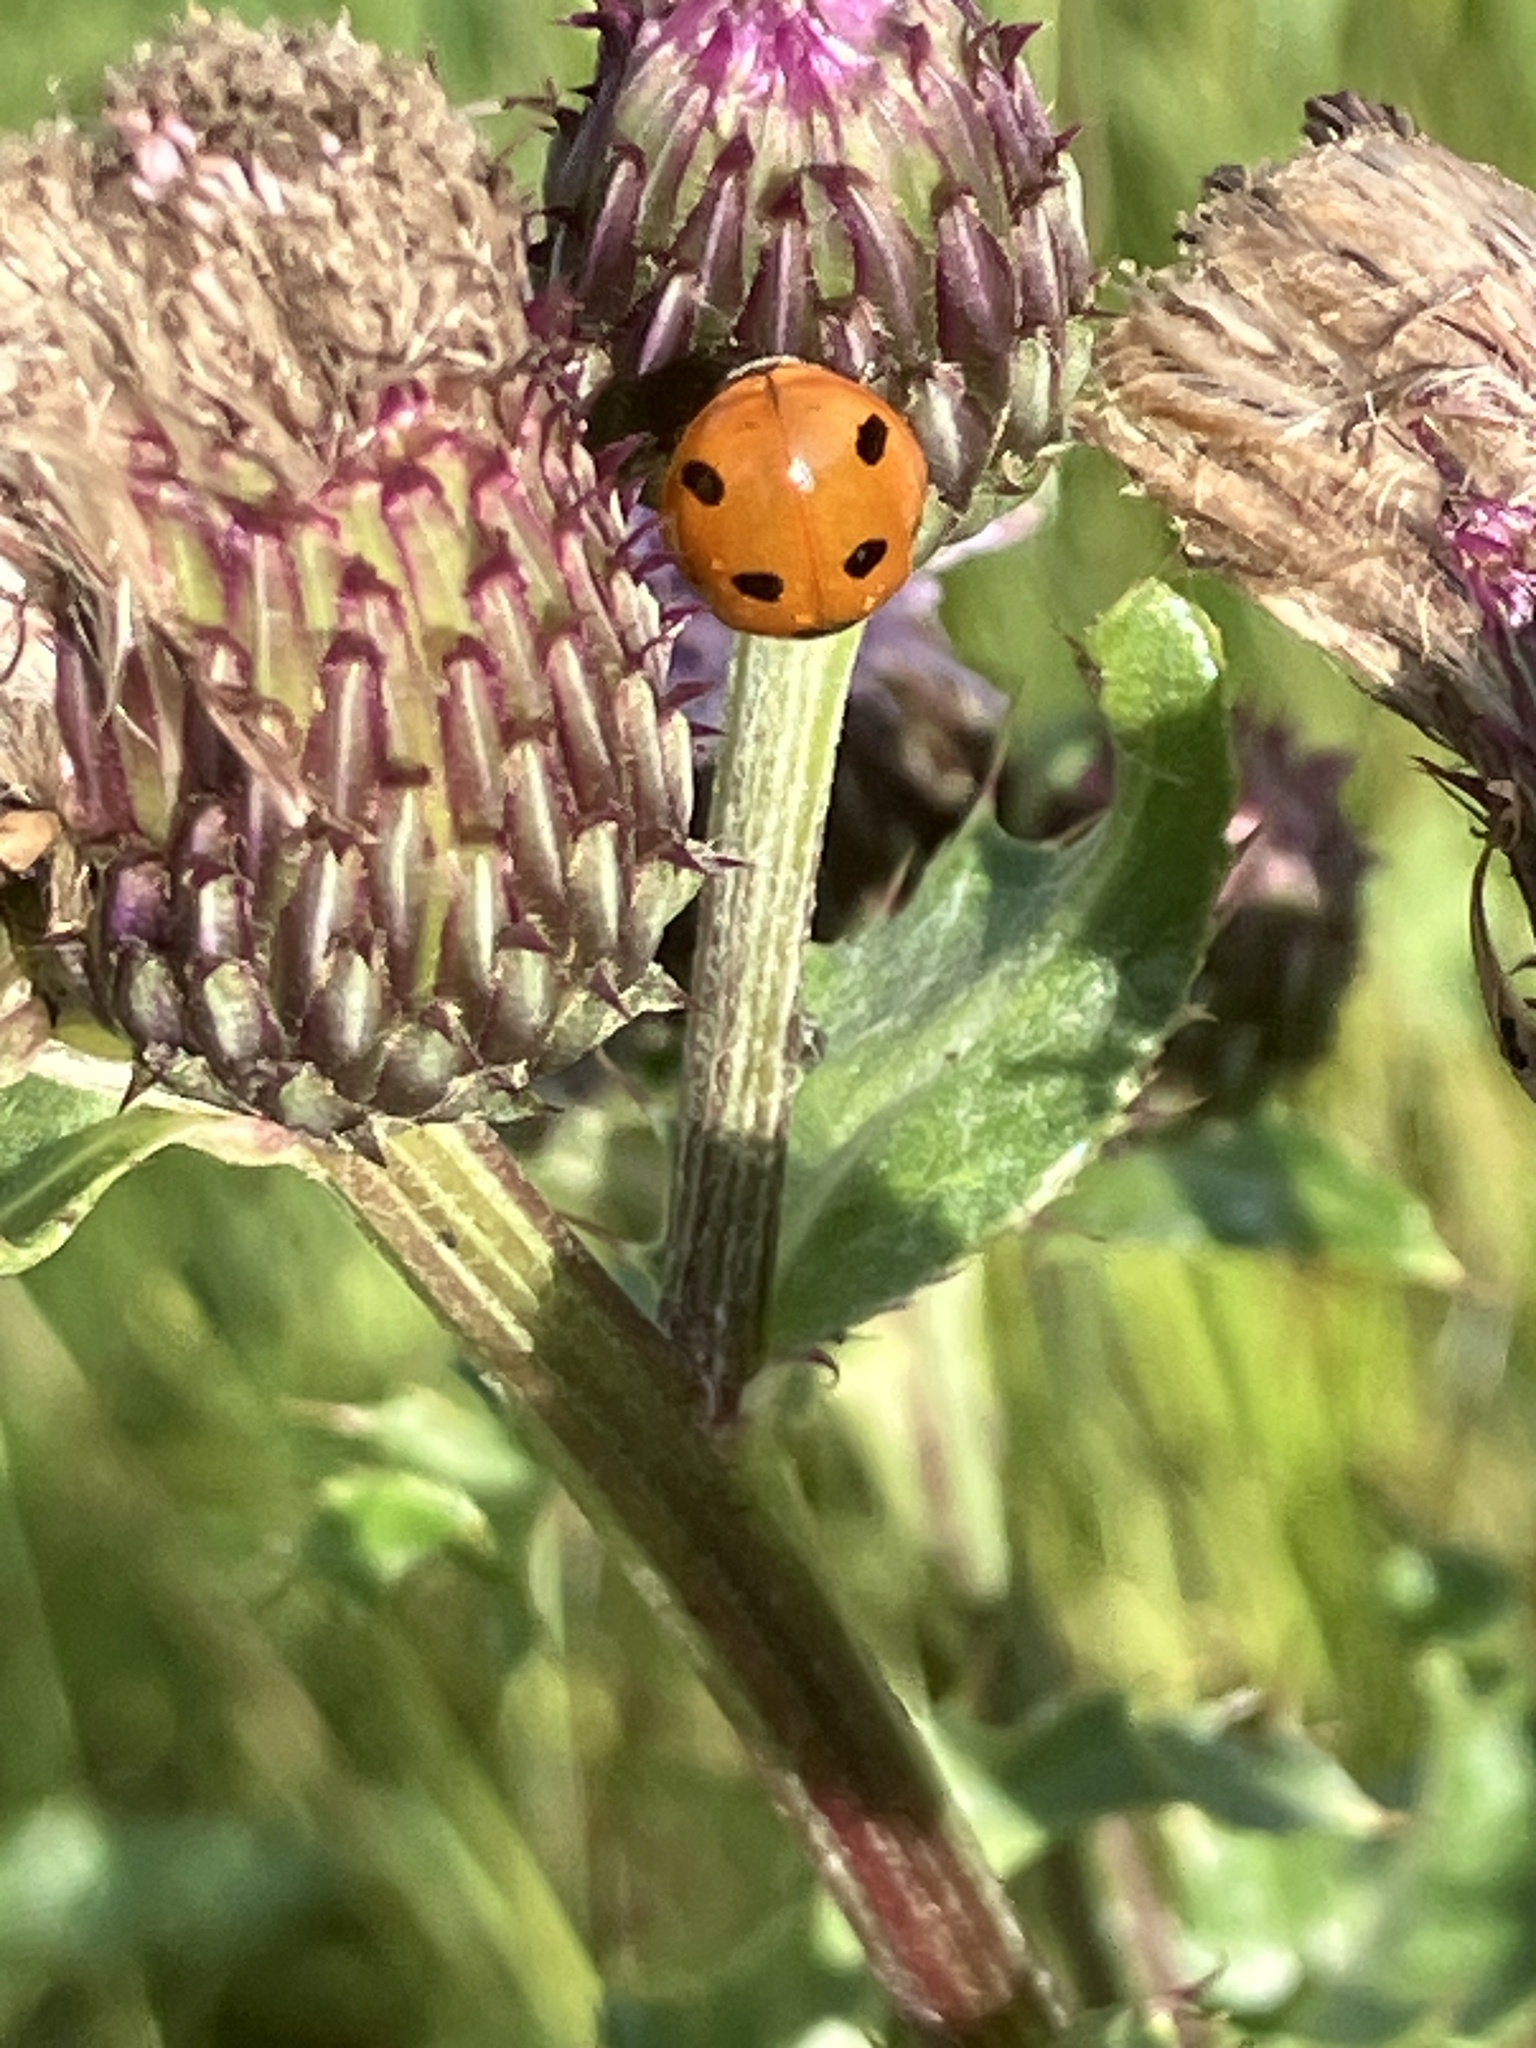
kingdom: Animalia
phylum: Arthropoda
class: Insecta
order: Coleoptera
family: Coccinellidae
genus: Coccinella
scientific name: Coccinella septempunctata
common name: Sevenspotted lady beetle
